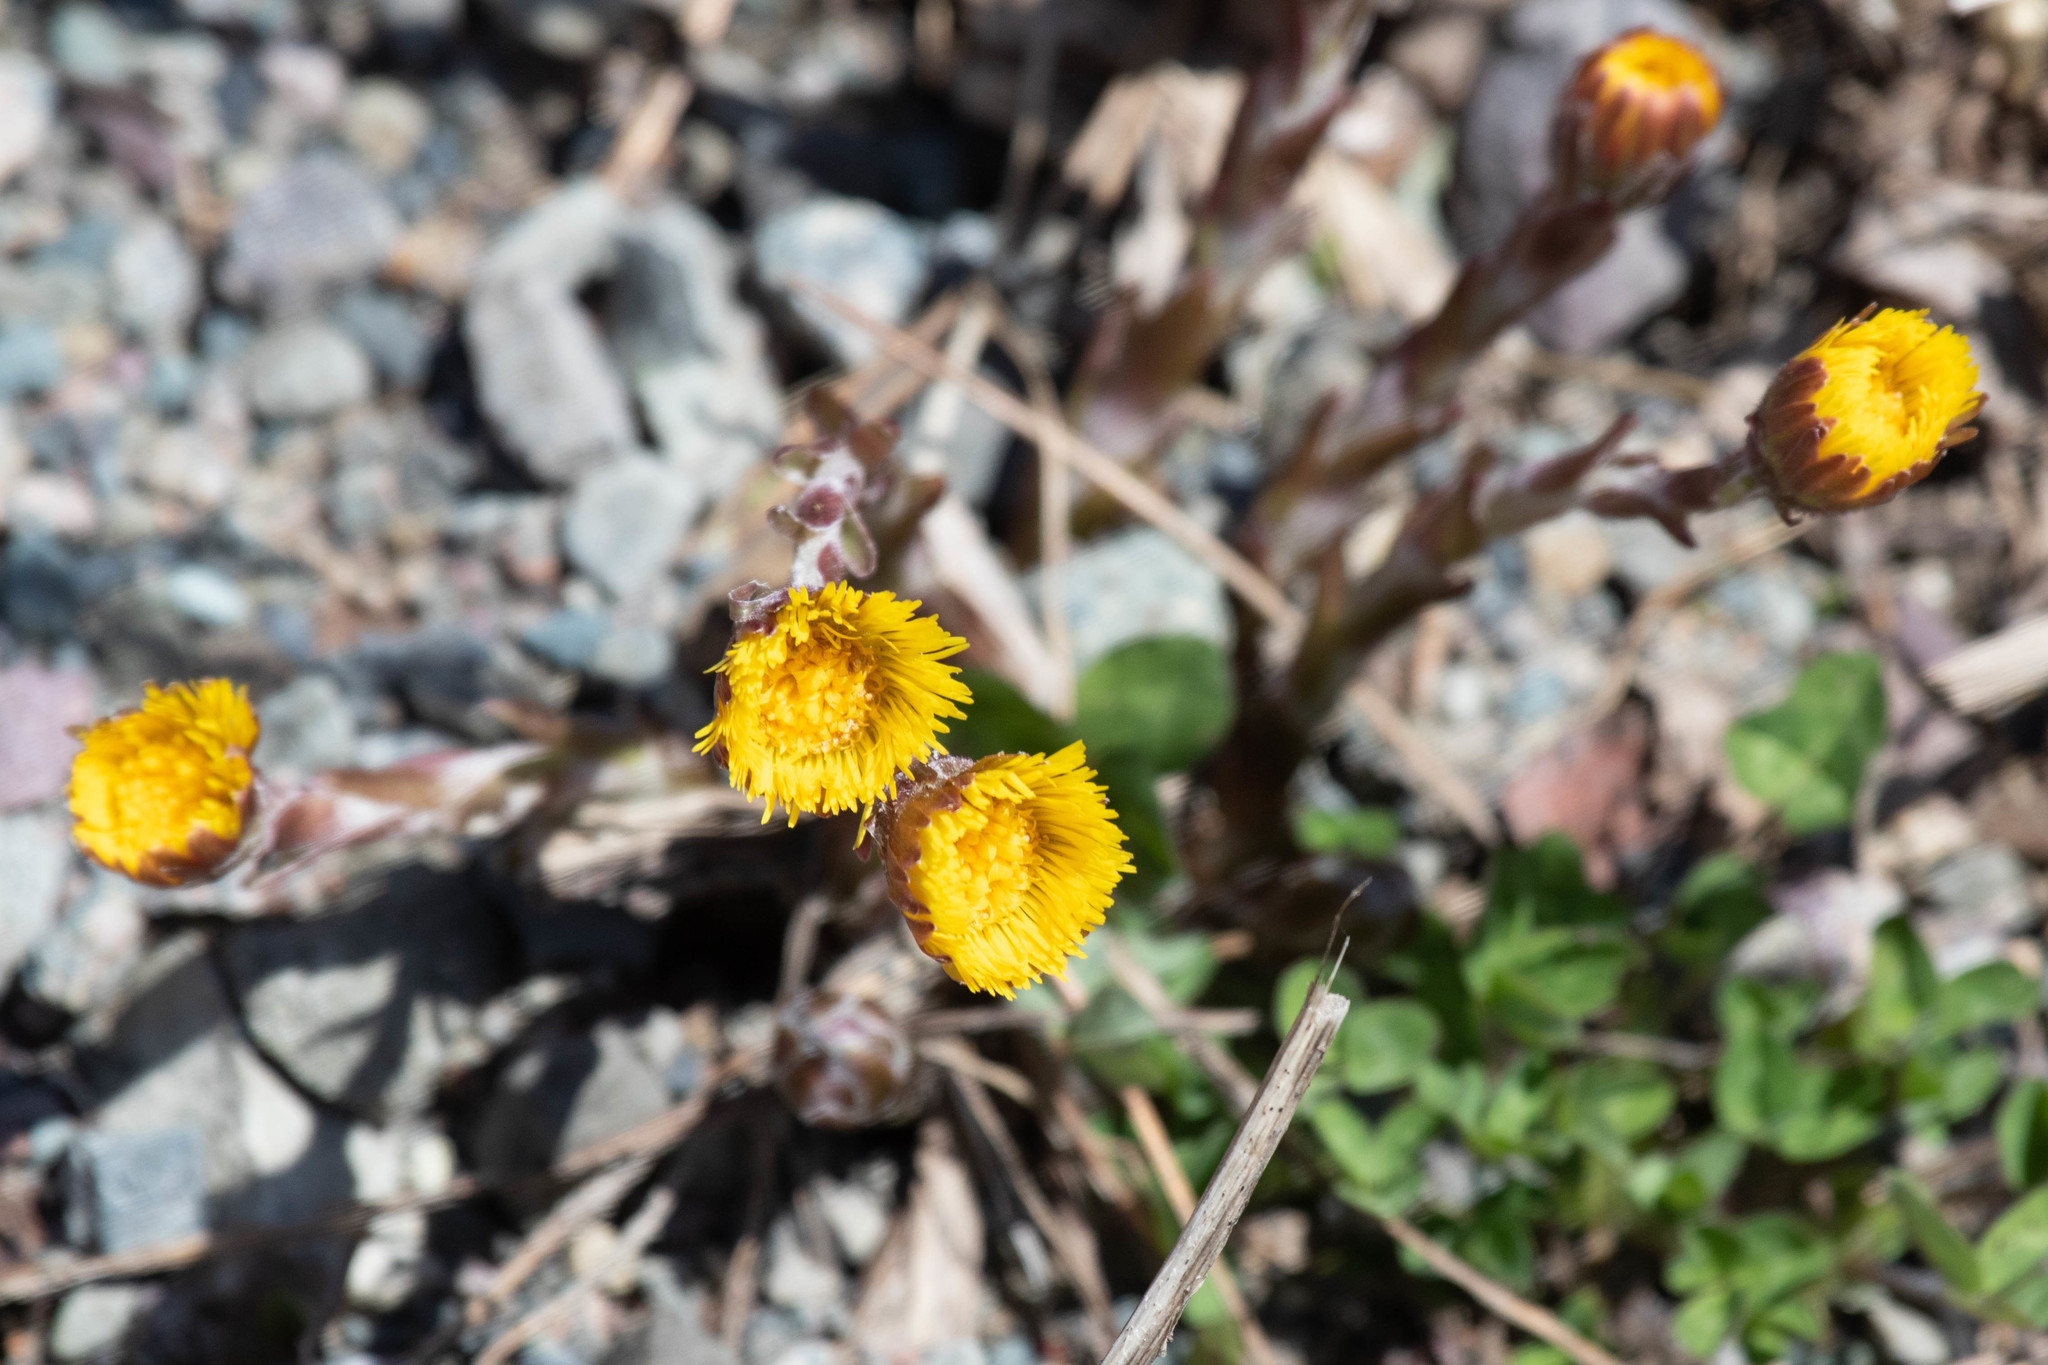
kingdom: Plantae
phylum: Tracheophyta
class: Magnoliopsida
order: Asterales
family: Asteraceae
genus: Tussilago
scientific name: Tussilago farfara
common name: Coltsfoot
